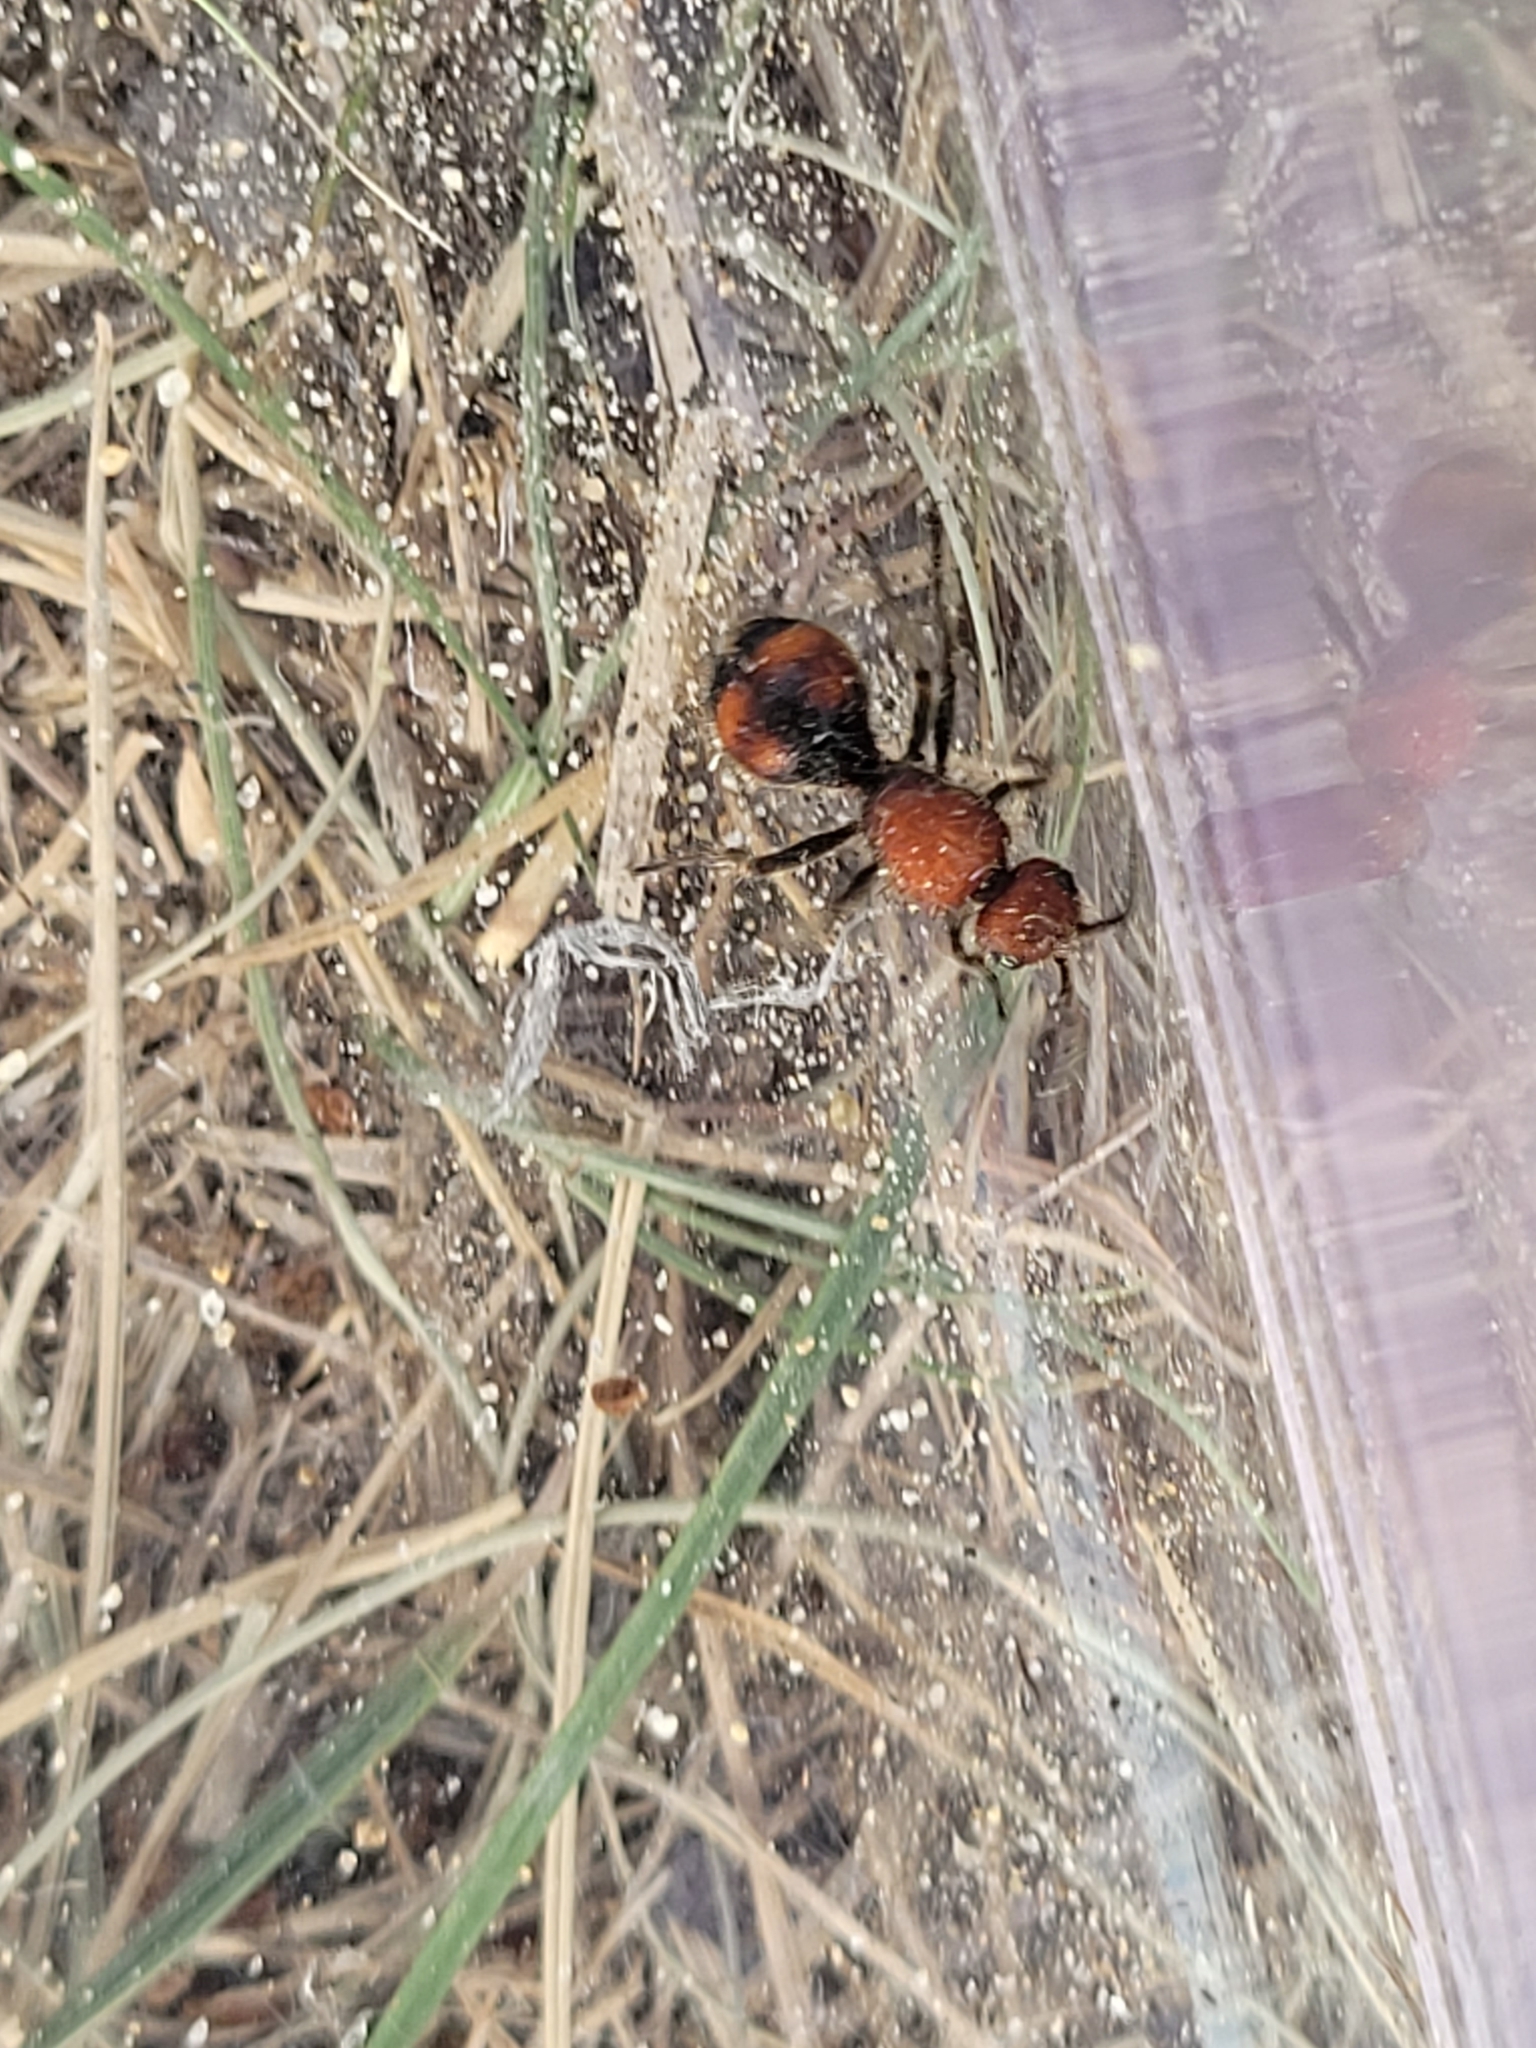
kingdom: Animalia
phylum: Arthropoda
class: Insecta
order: Hymenoptera
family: Mutillidae
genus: Dasymutilla
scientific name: Dasymutilla
